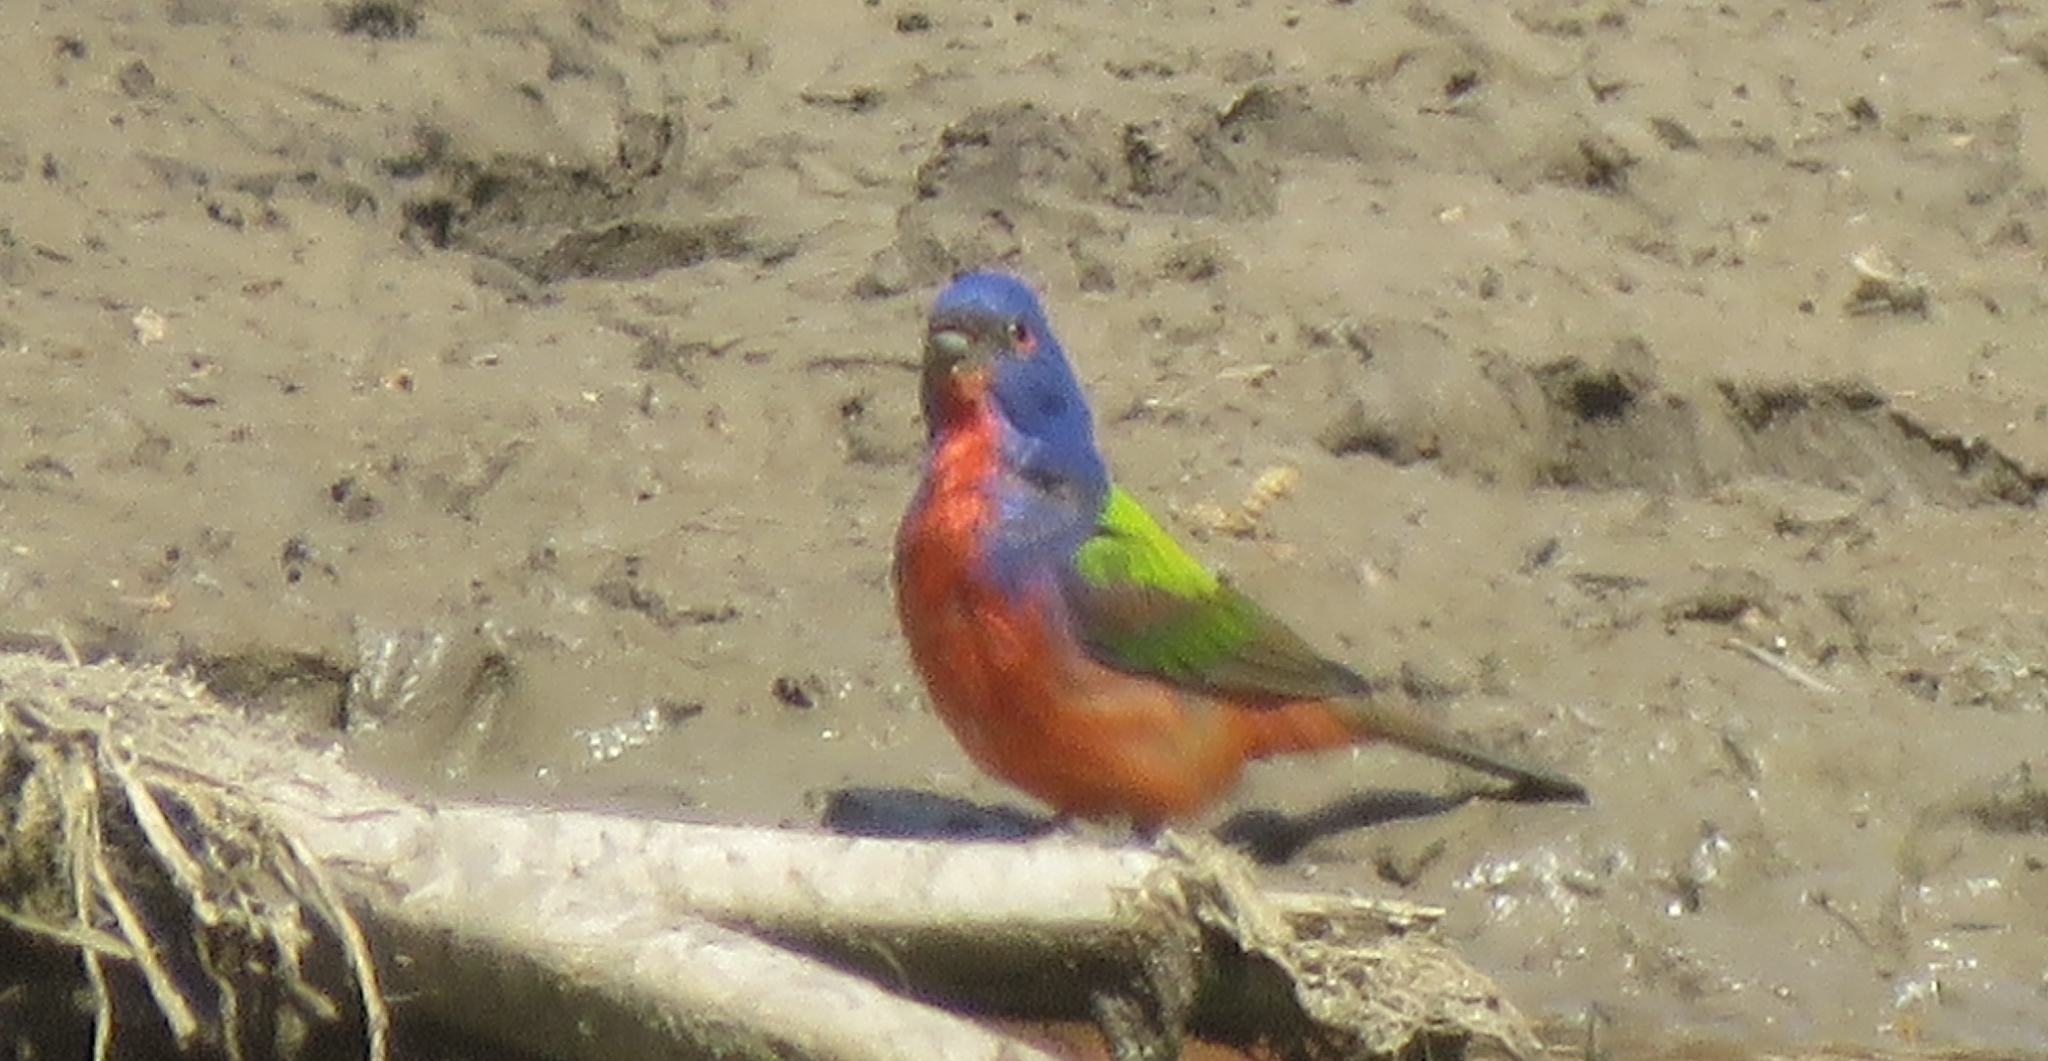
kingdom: Animalia
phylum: Chordata
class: Aves
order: Passeriformes
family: Cardinalidae
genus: Passerina
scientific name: Passerina ciris
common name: Painted bunting
